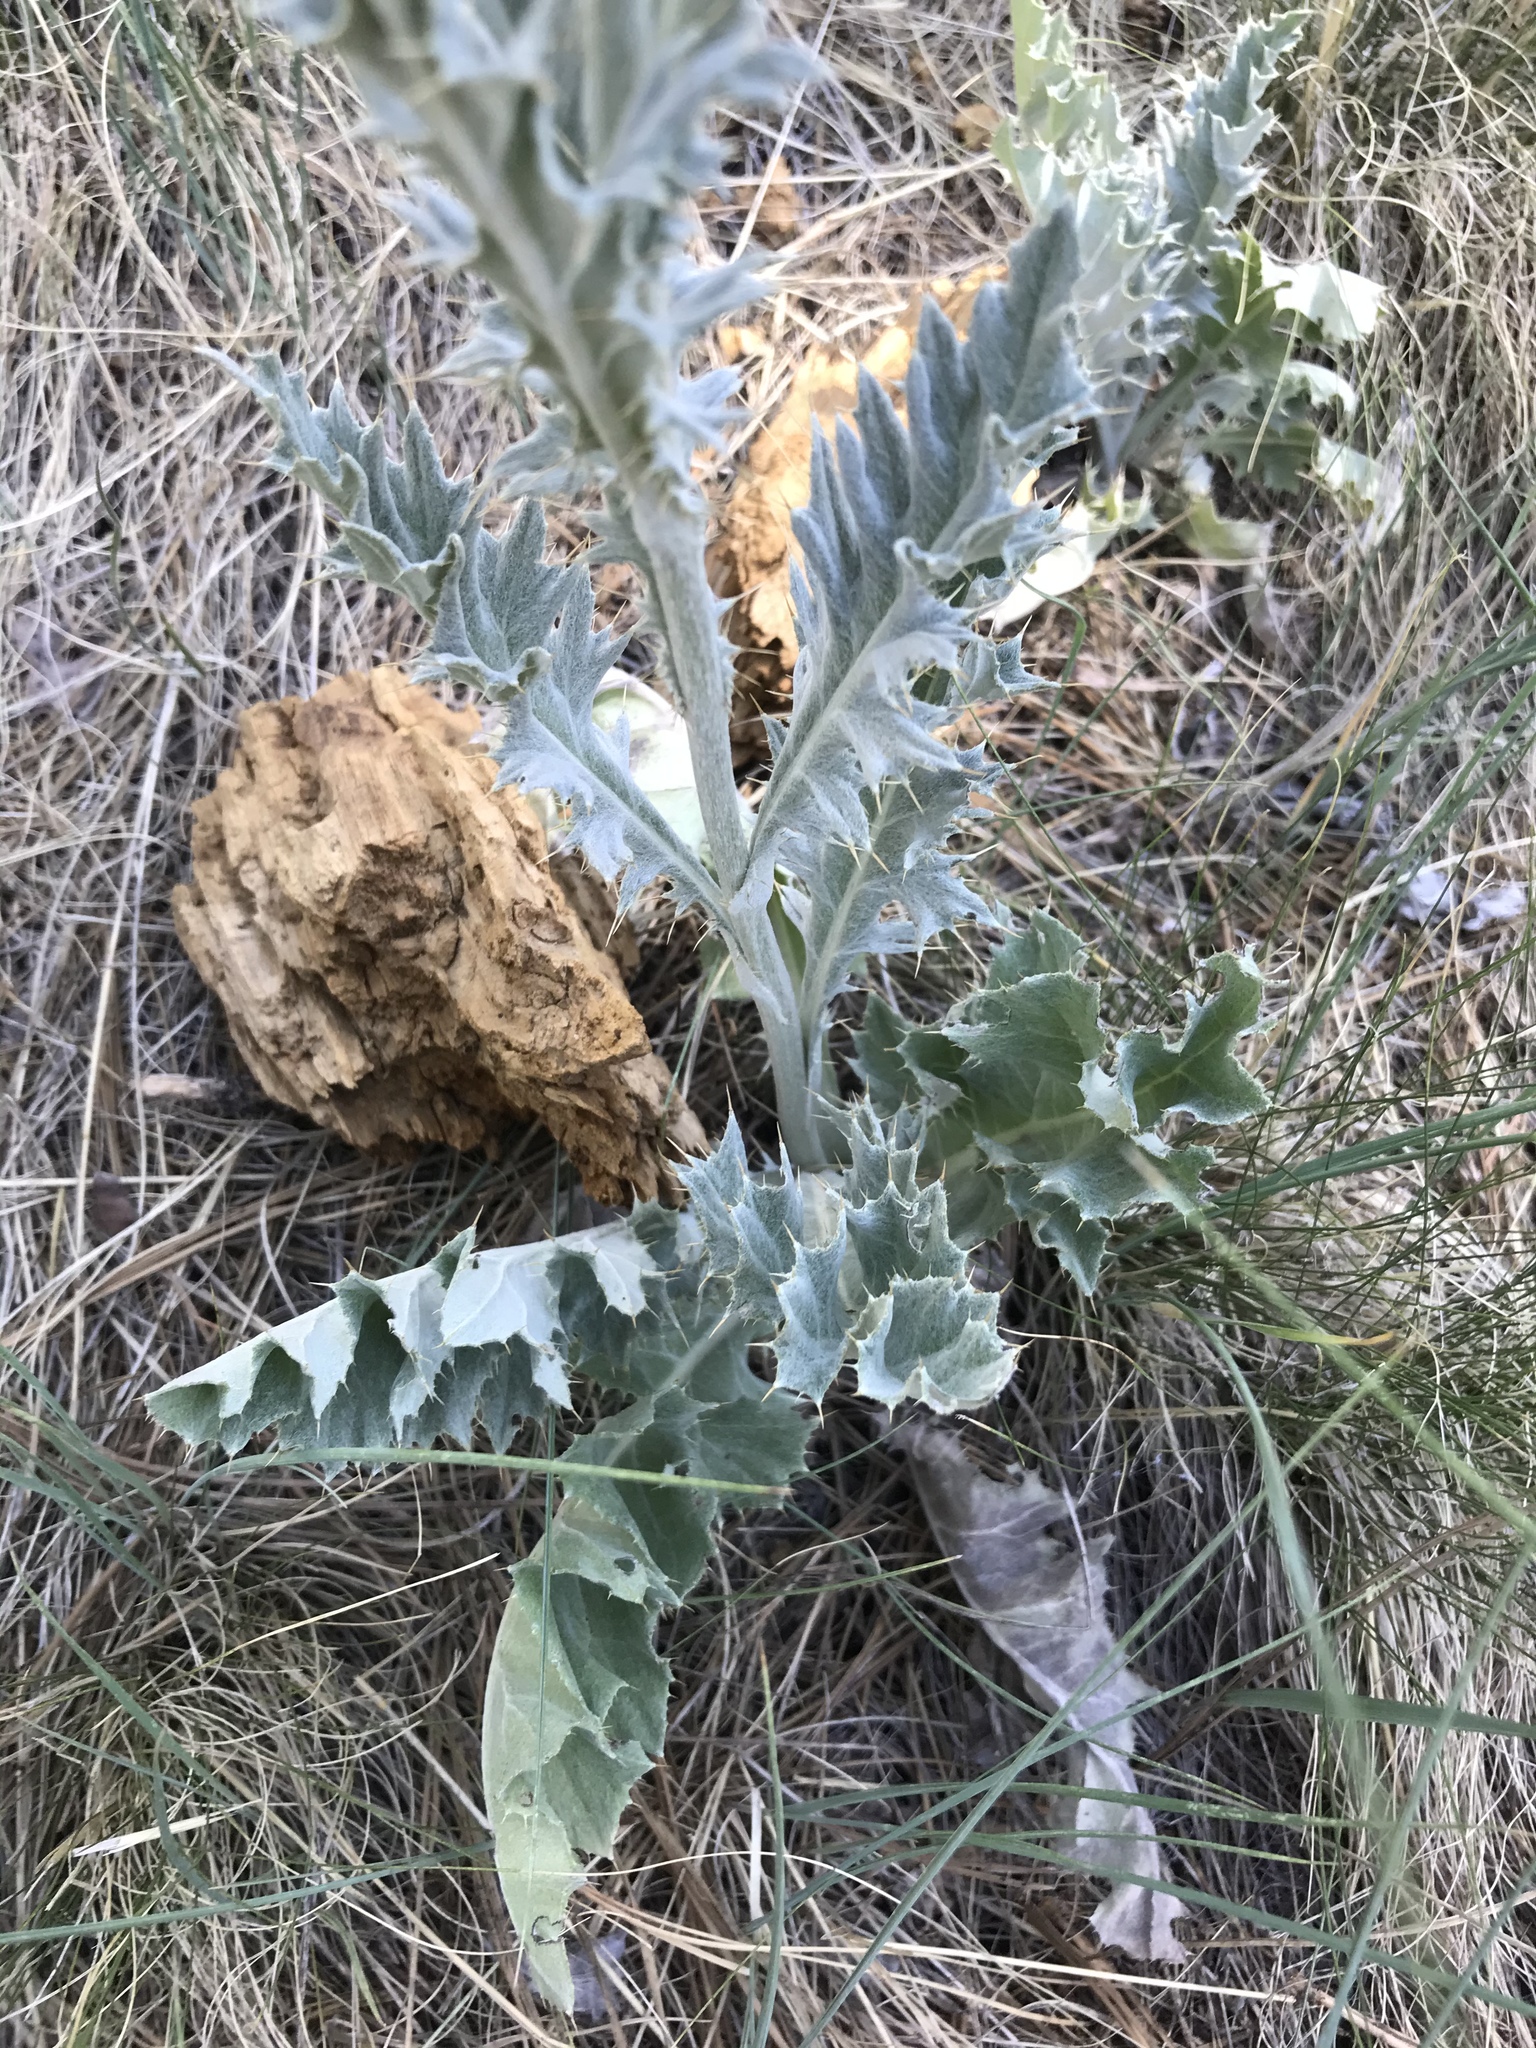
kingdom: Plantae
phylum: Tracheophyta
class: Magnoliopsida
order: Asterales
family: Asteraceae
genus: Cirsium
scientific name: Cirsium undulatum
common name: Pasture thistle
